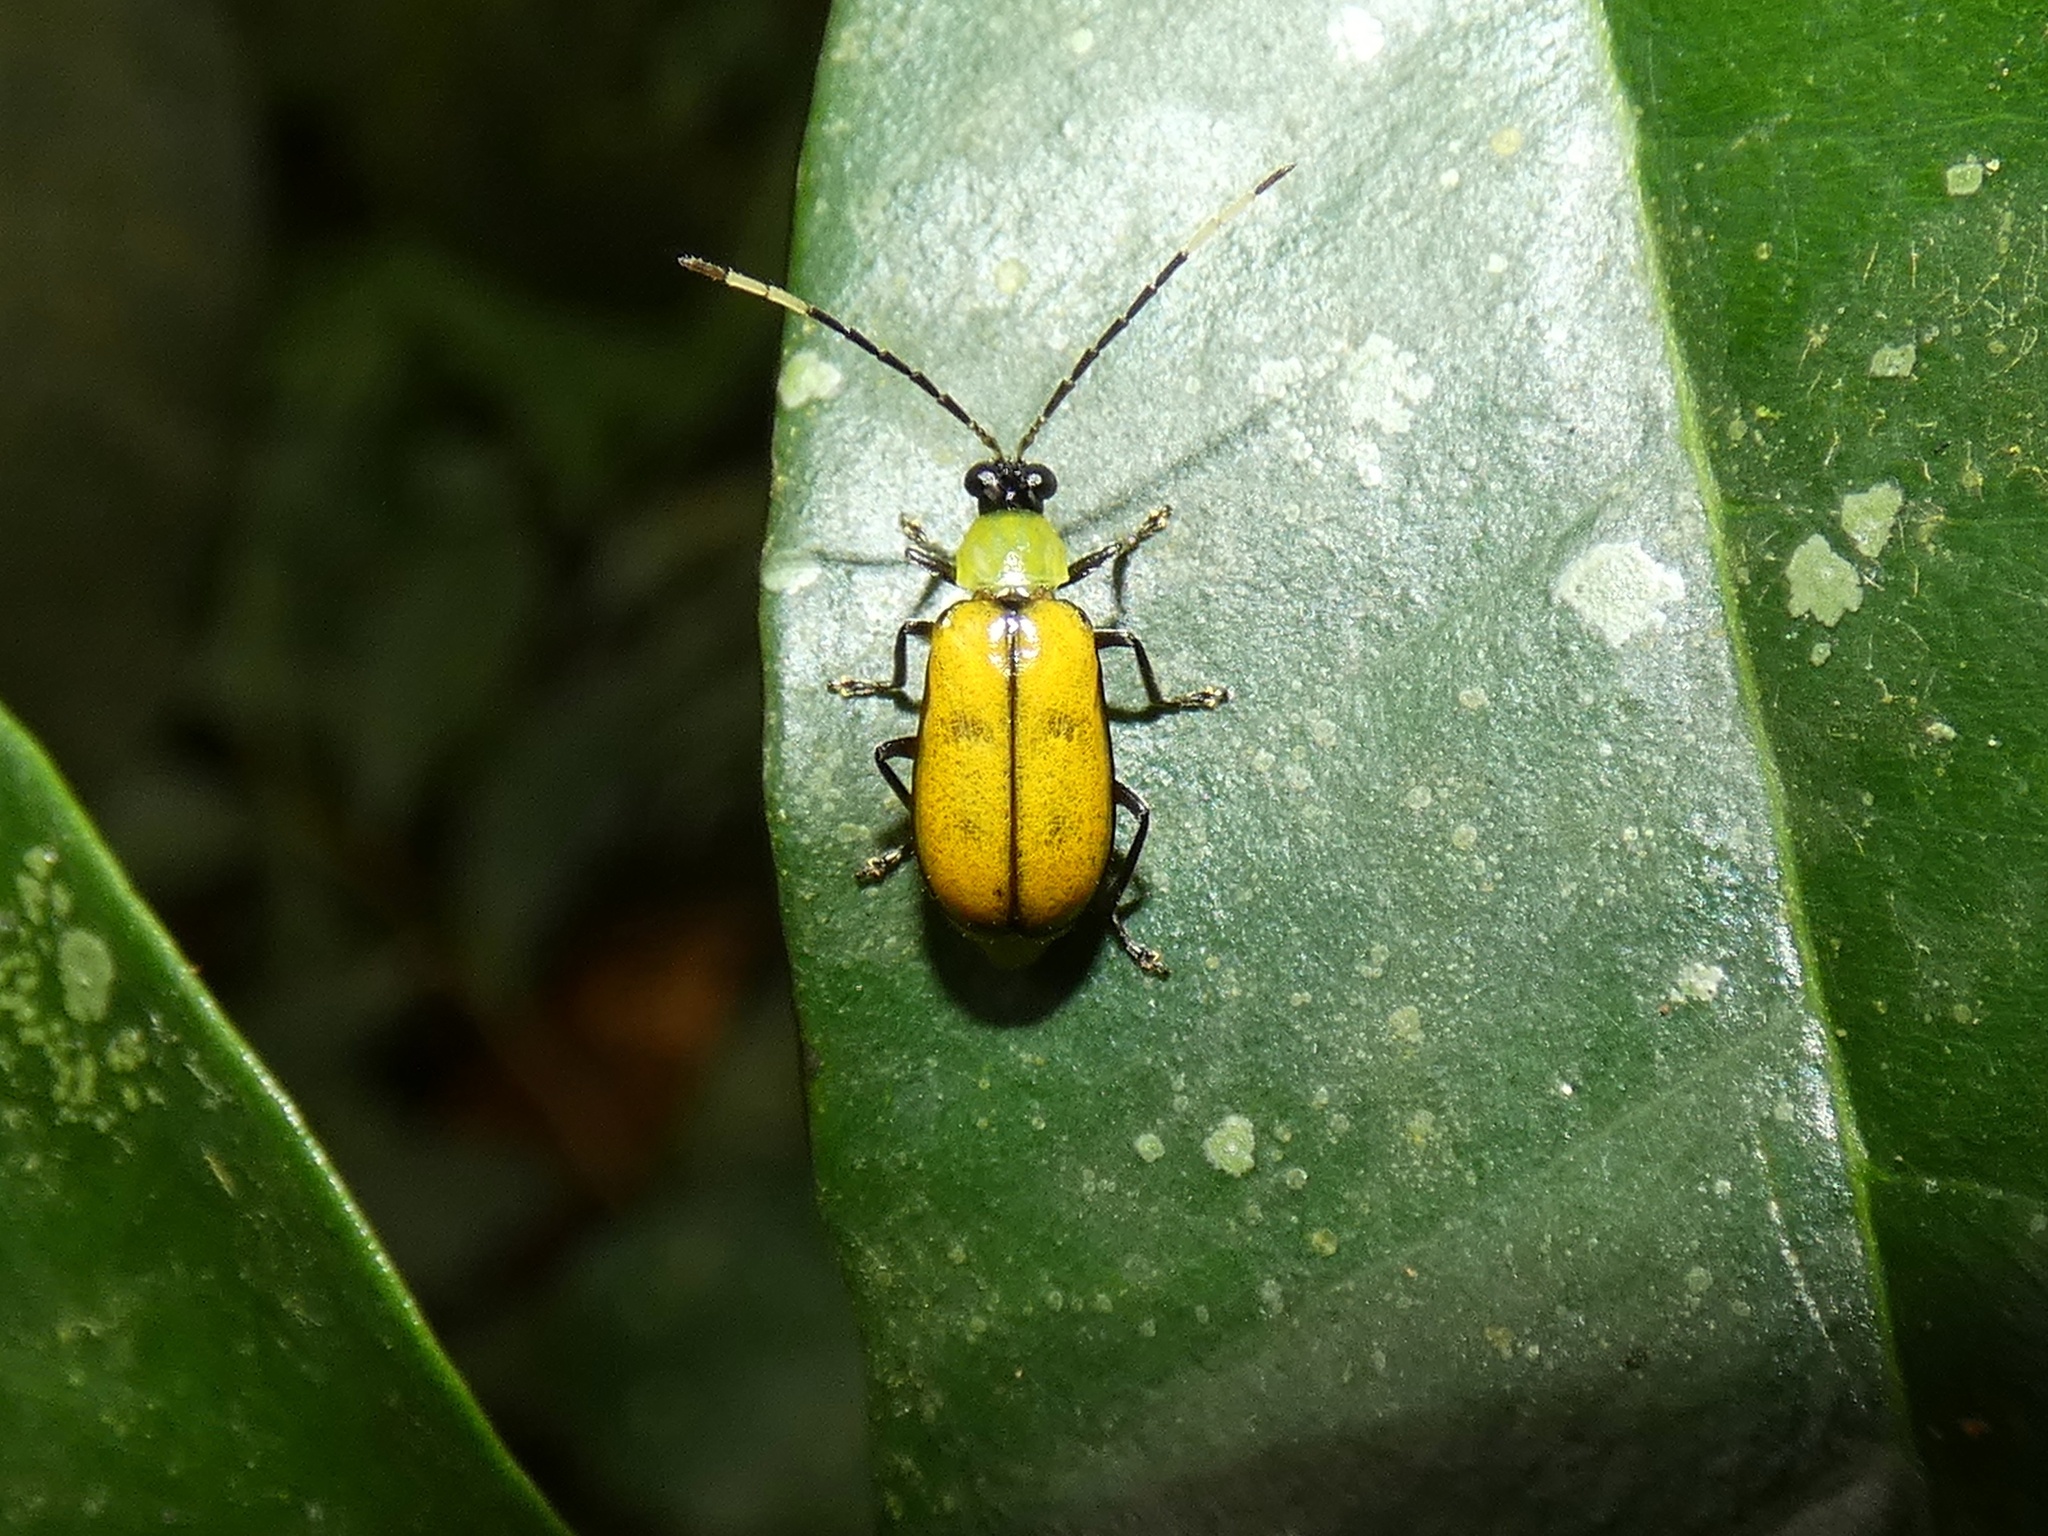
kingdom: Animalia
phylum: Arthropoda
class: Insecta
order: Coleoptera
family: Chrysomelidae
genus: Diabrotica
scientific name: Diabrotica
